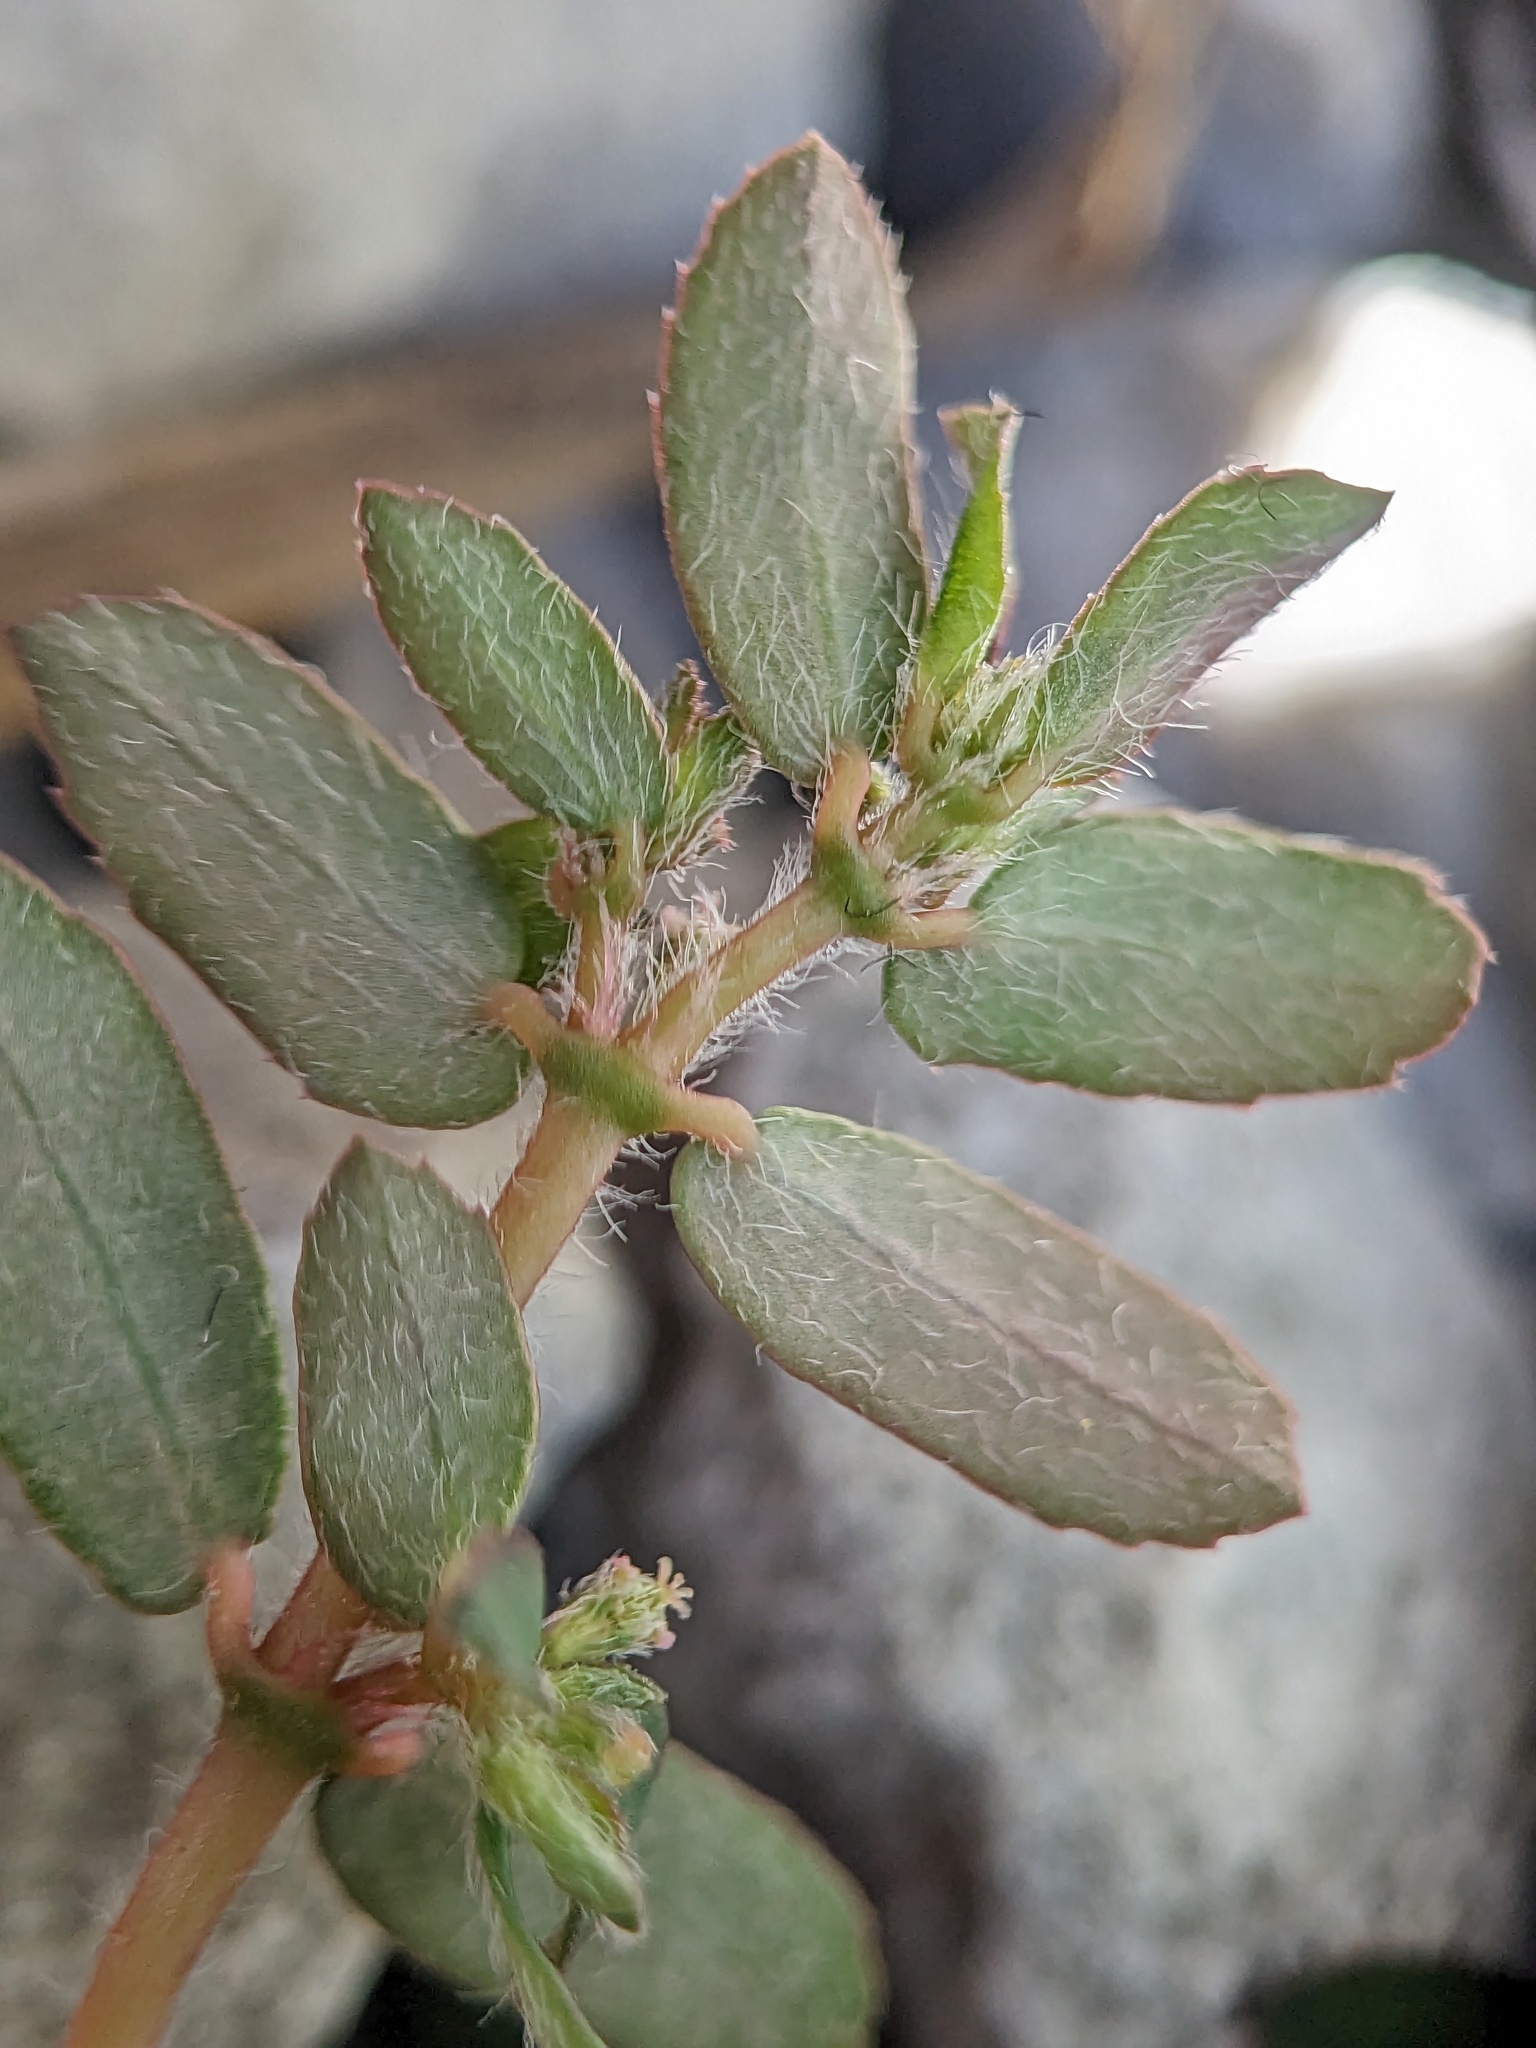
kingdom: Plantae
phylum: Tracheophyta
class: Magnoliopsida
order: Malpighiales
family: Euphorbiaceae
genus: Euphorbia
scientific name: Euphorbia maculata
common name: Spotted spurge
